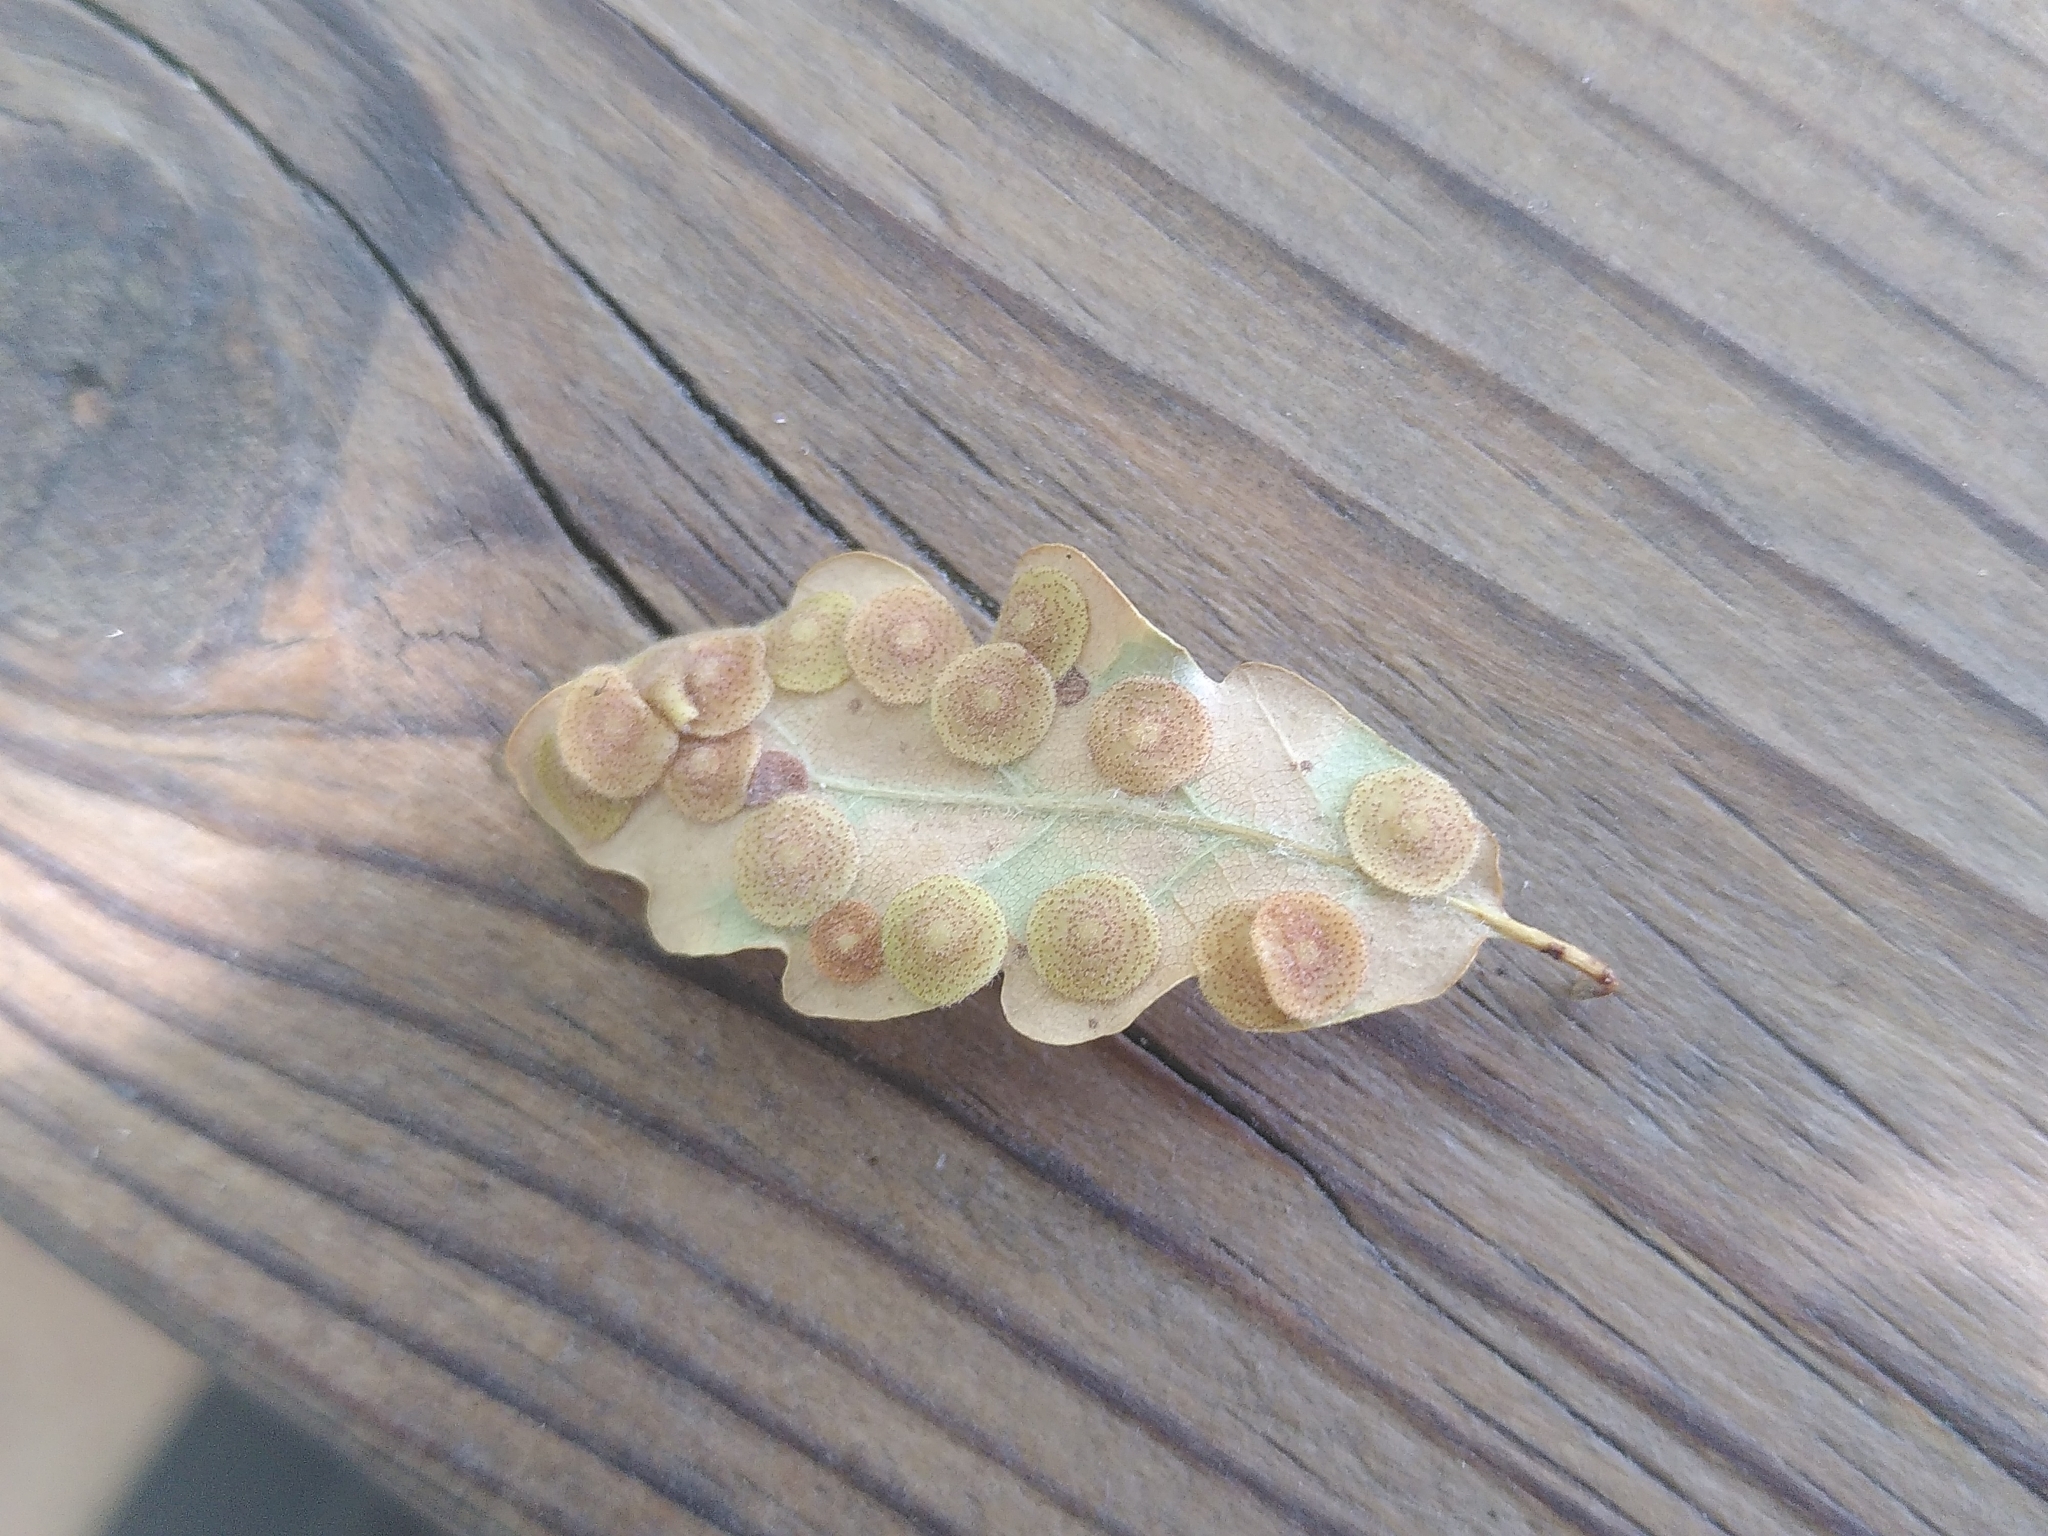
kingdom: Animalia
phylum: Arthropoda
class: Insecta
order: Hymenoptera
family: Cynipidae
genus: Neuroterus
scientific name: Neuroterus quercusbaccarum
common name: Common spangle gall
